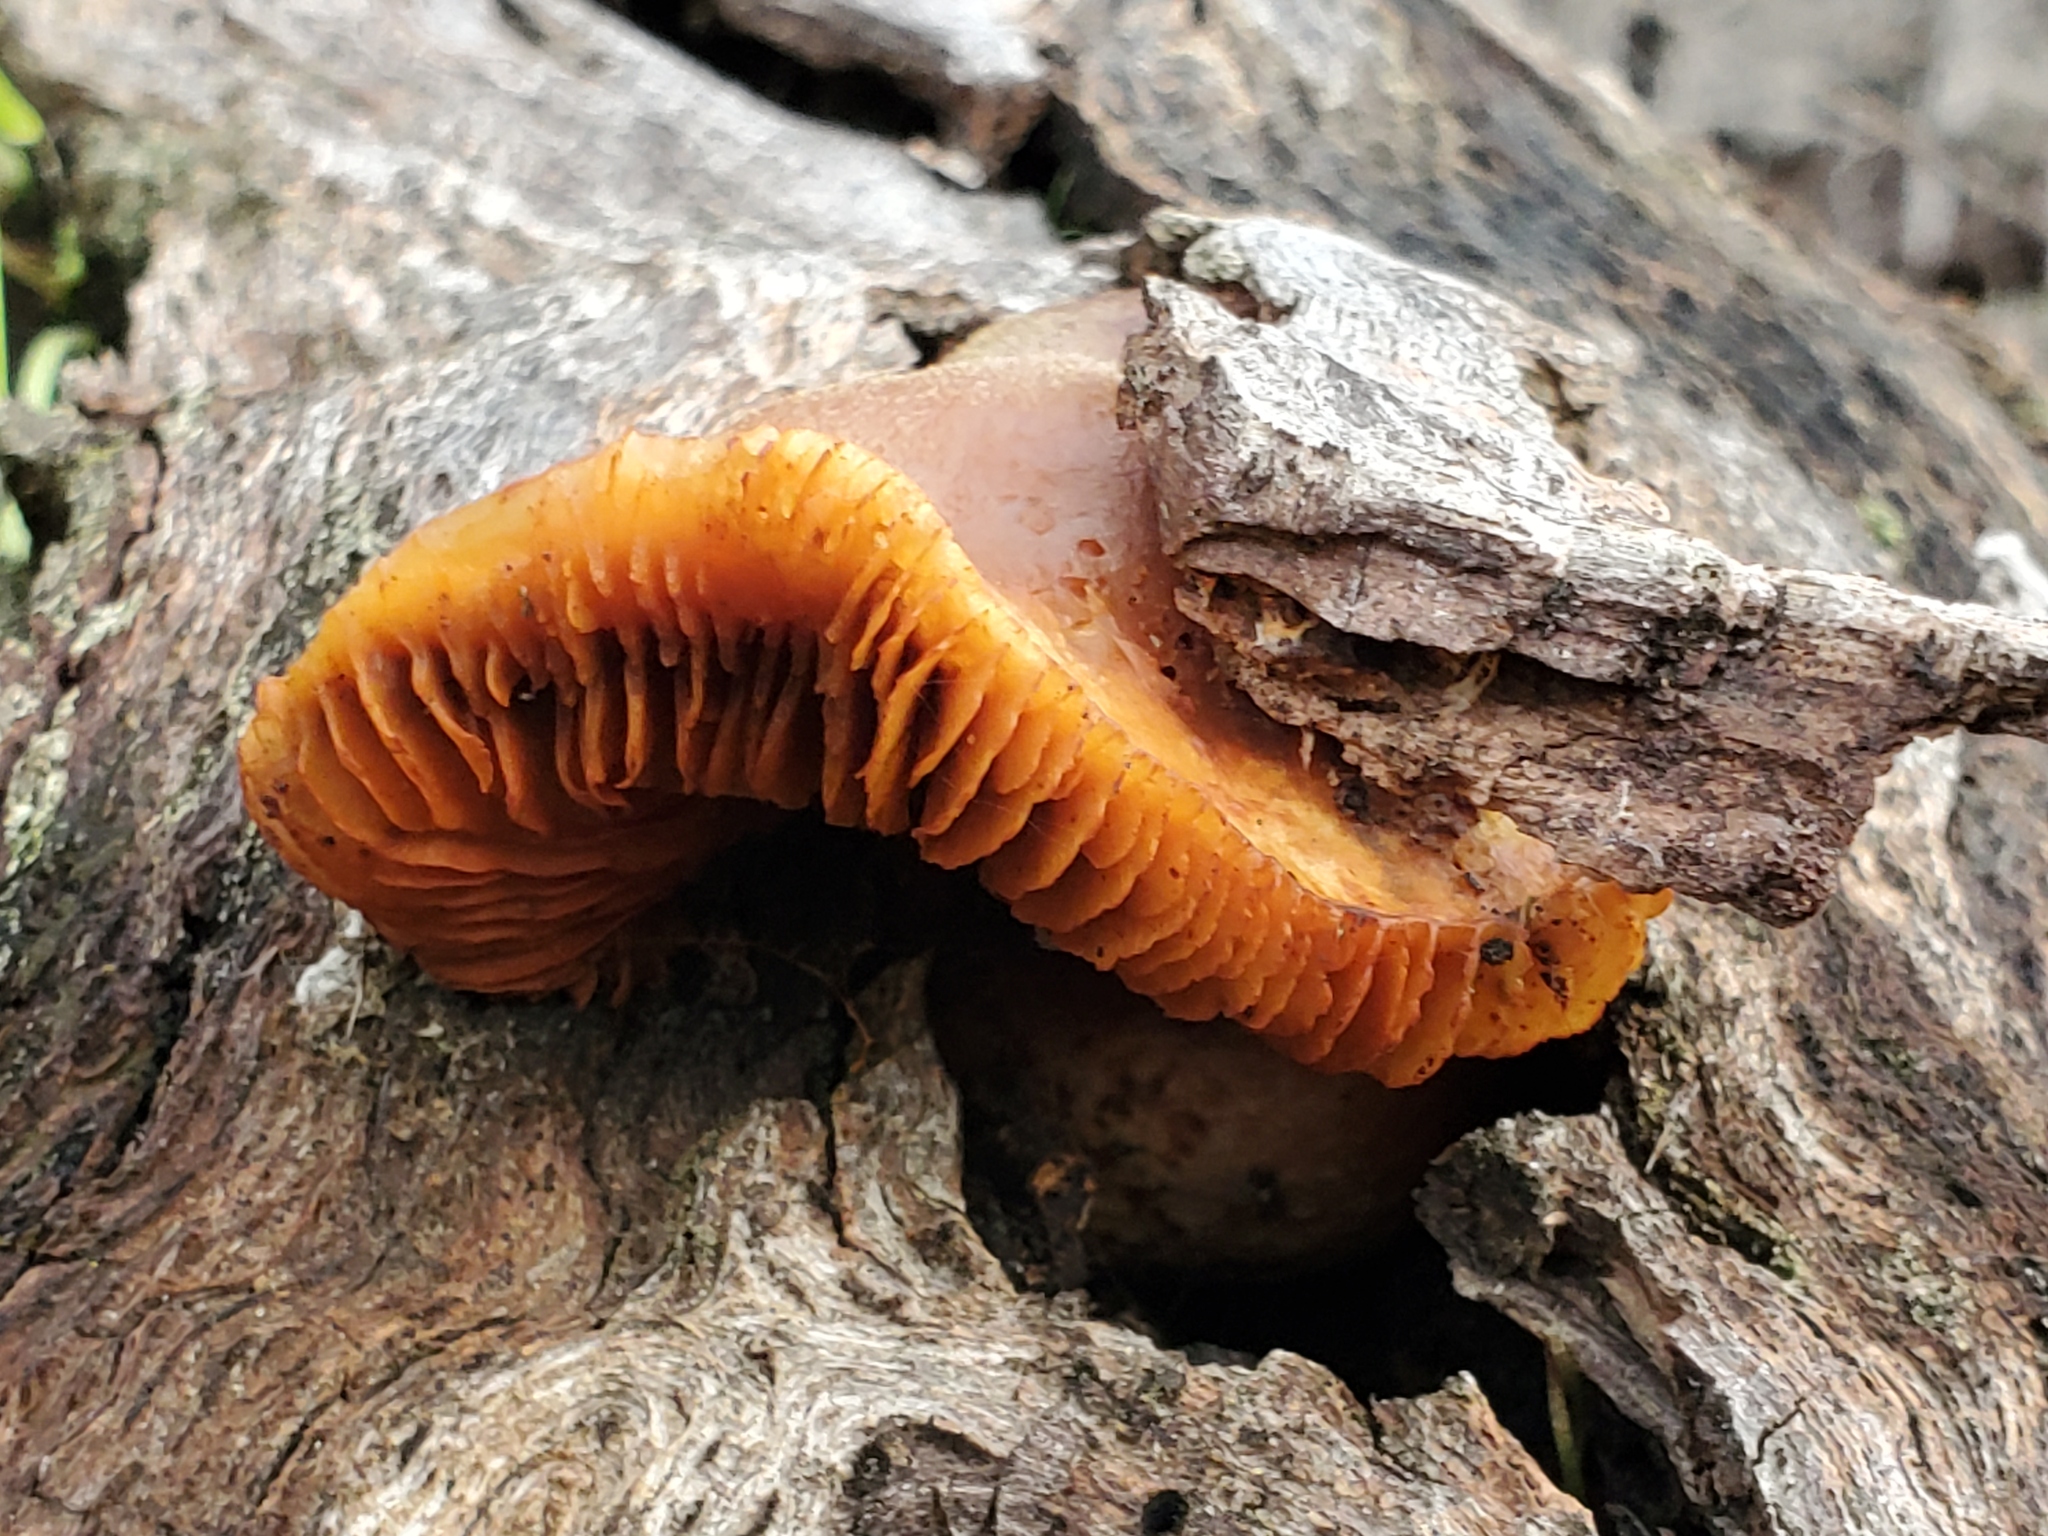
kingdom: Fungi
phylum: Basidiomycota
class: Agaricomycetes
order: Agaricales
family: Hymenogastraceae
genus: Gymnopilus
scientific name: Gymnopilus luteofolius
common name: Yellow-gilled gymnopilus
